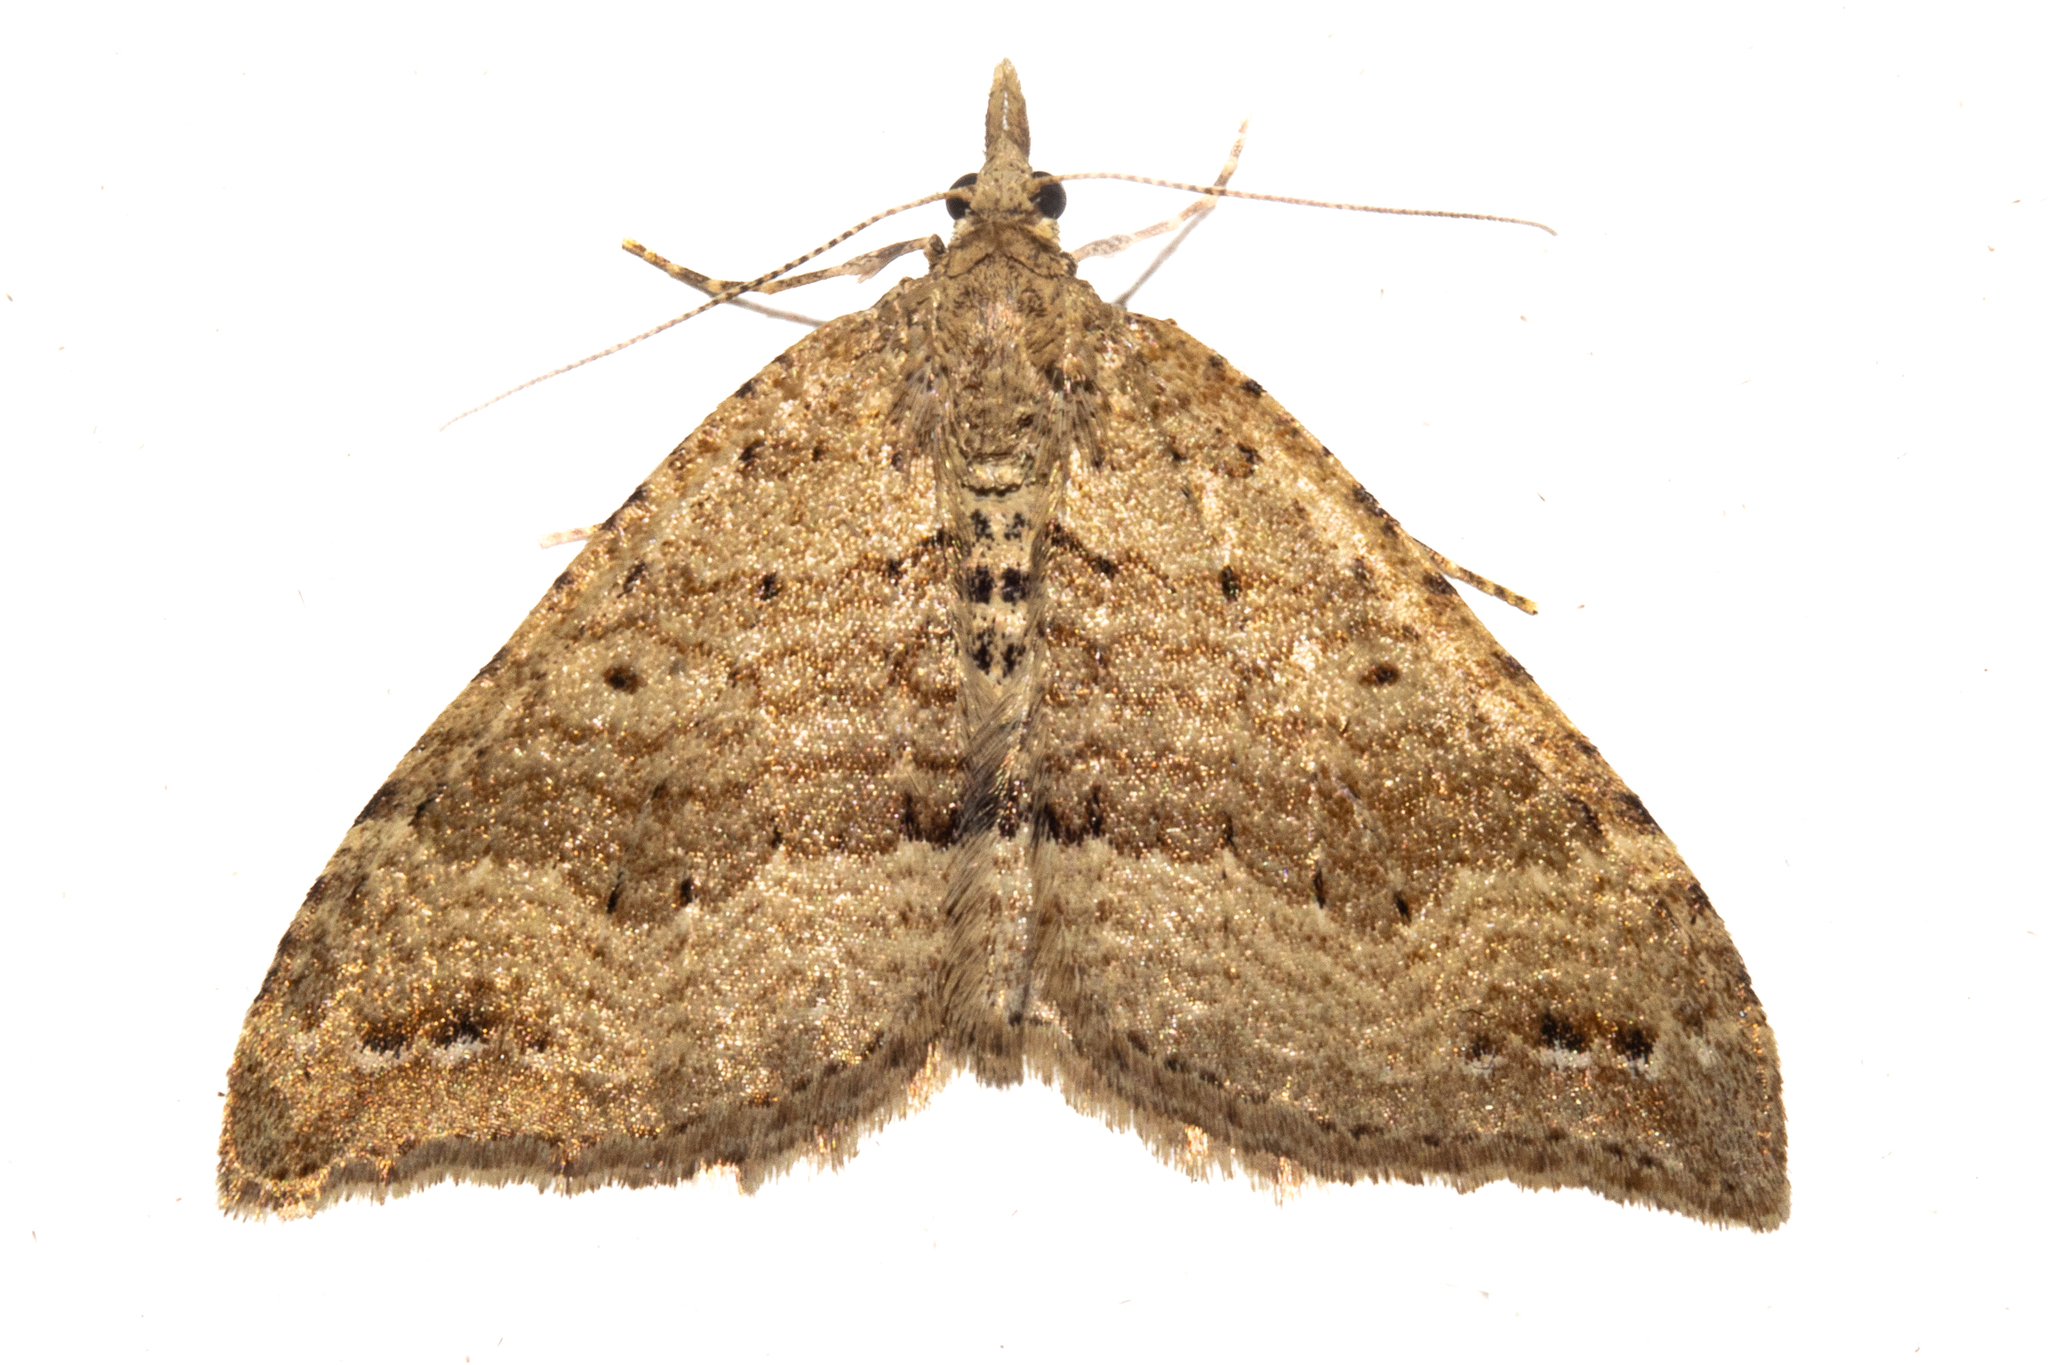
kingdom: Animalia
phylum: Arthropoda
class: Insecta
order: Lepidoptera
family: Geometridae
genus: Homodotis
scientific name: Homodotis falcata
